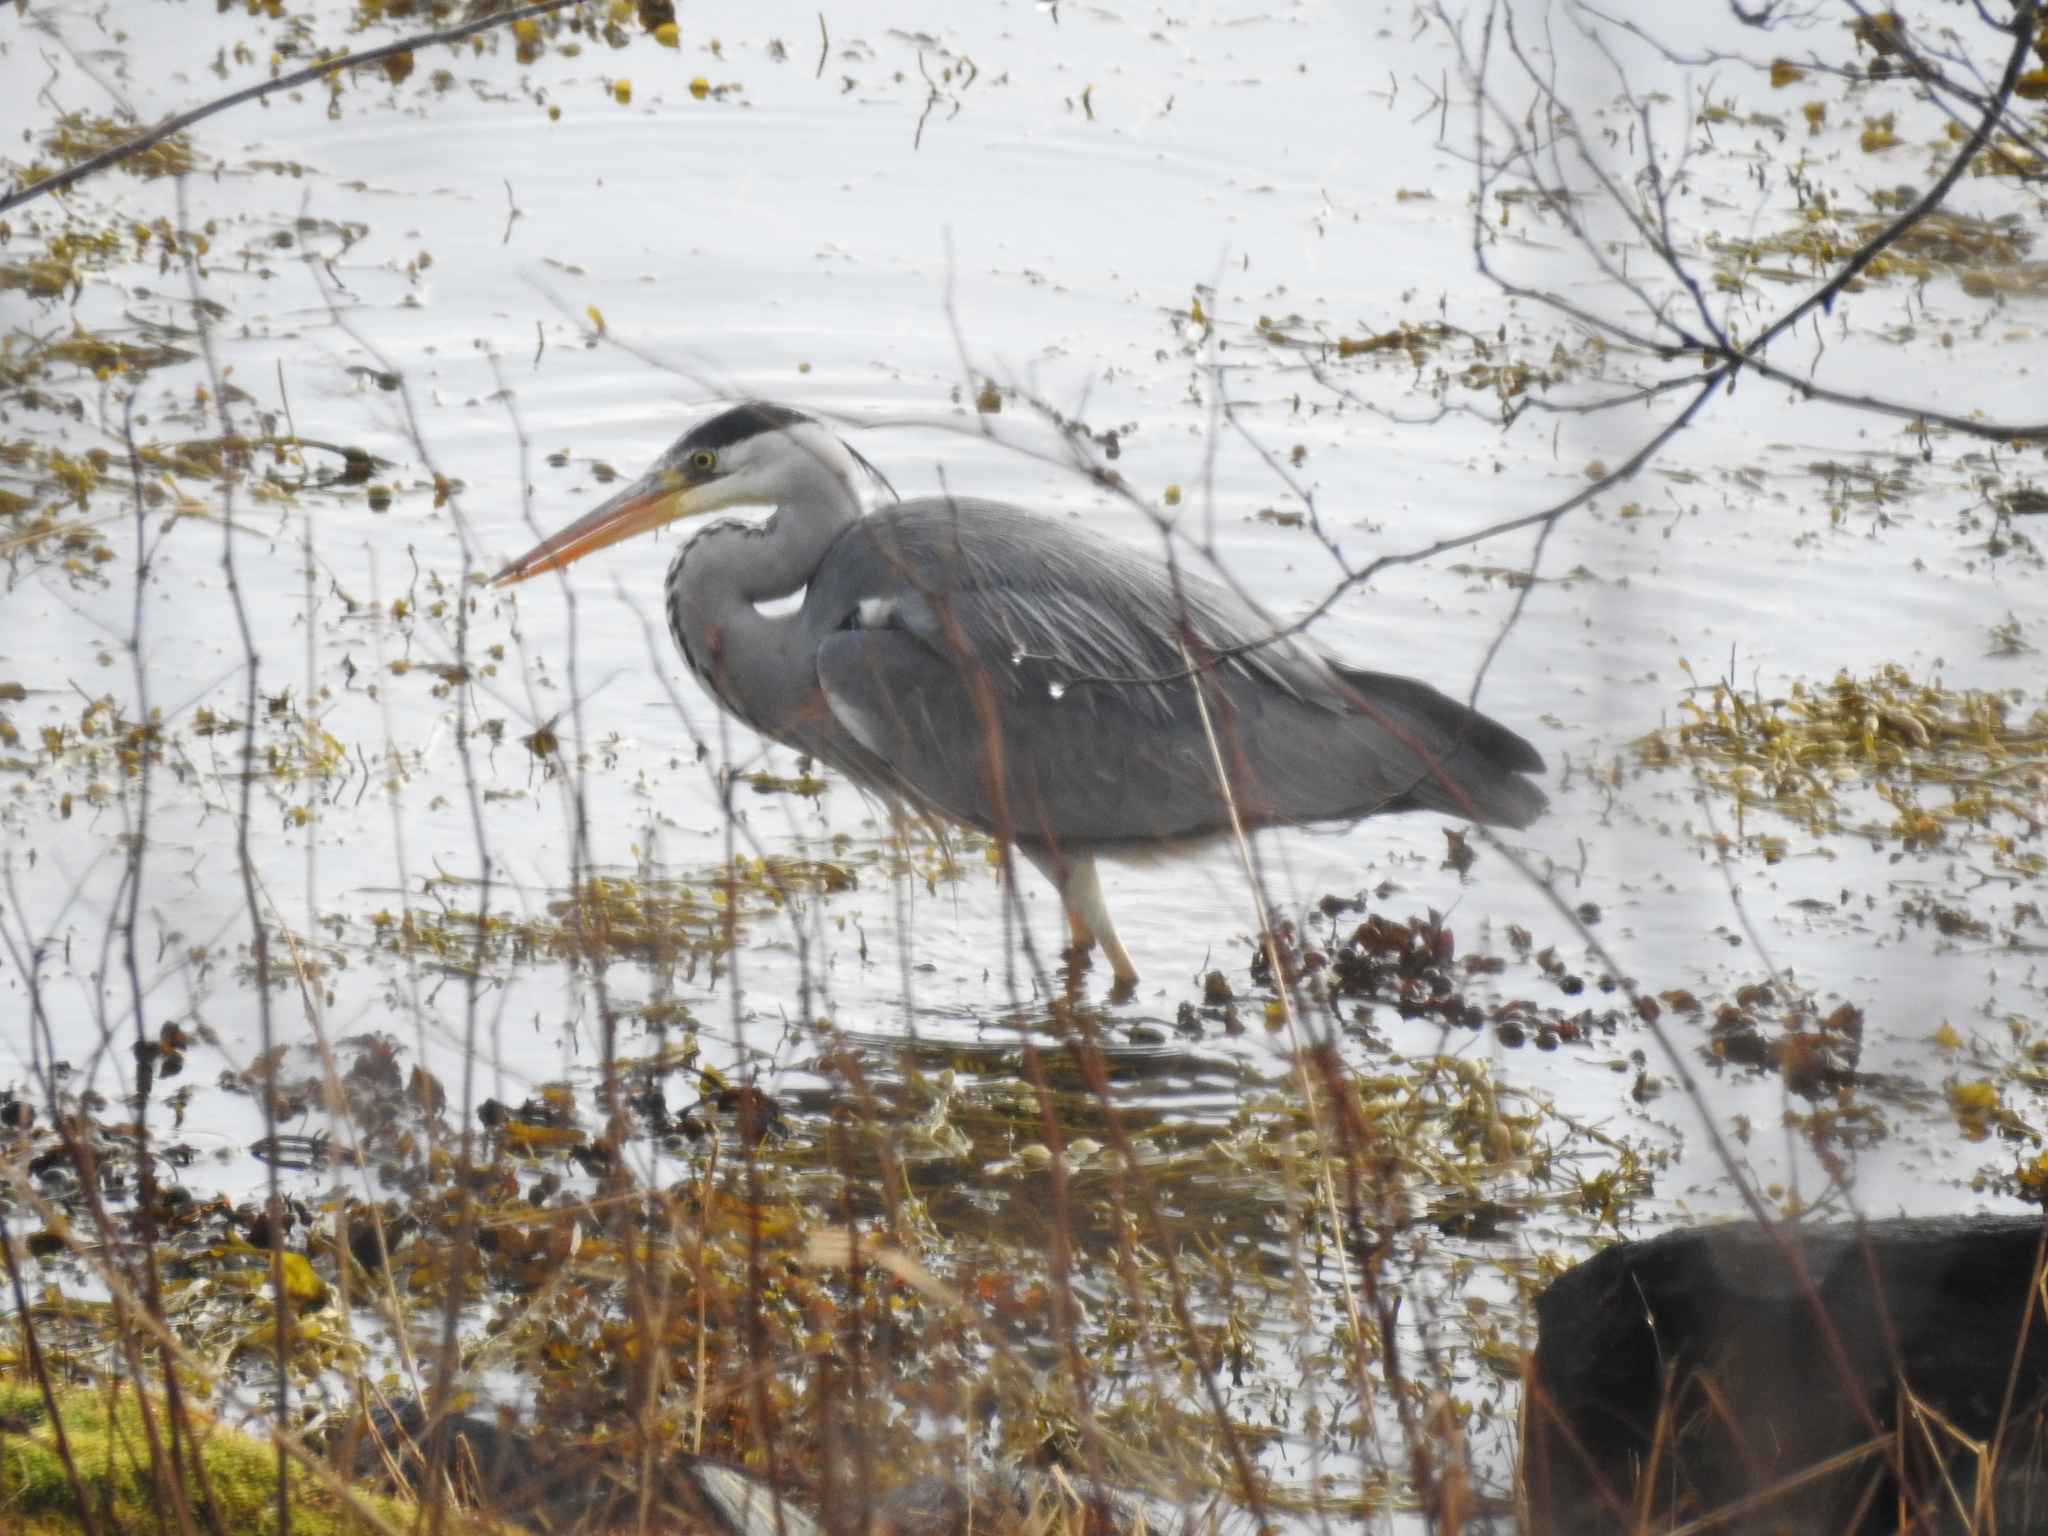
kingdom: Animalia
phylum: Chordata
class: Aves
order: Pelecaniformes
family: Ardeidae
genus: Ardea
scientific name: Ardea cinerea
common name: Grey heron
